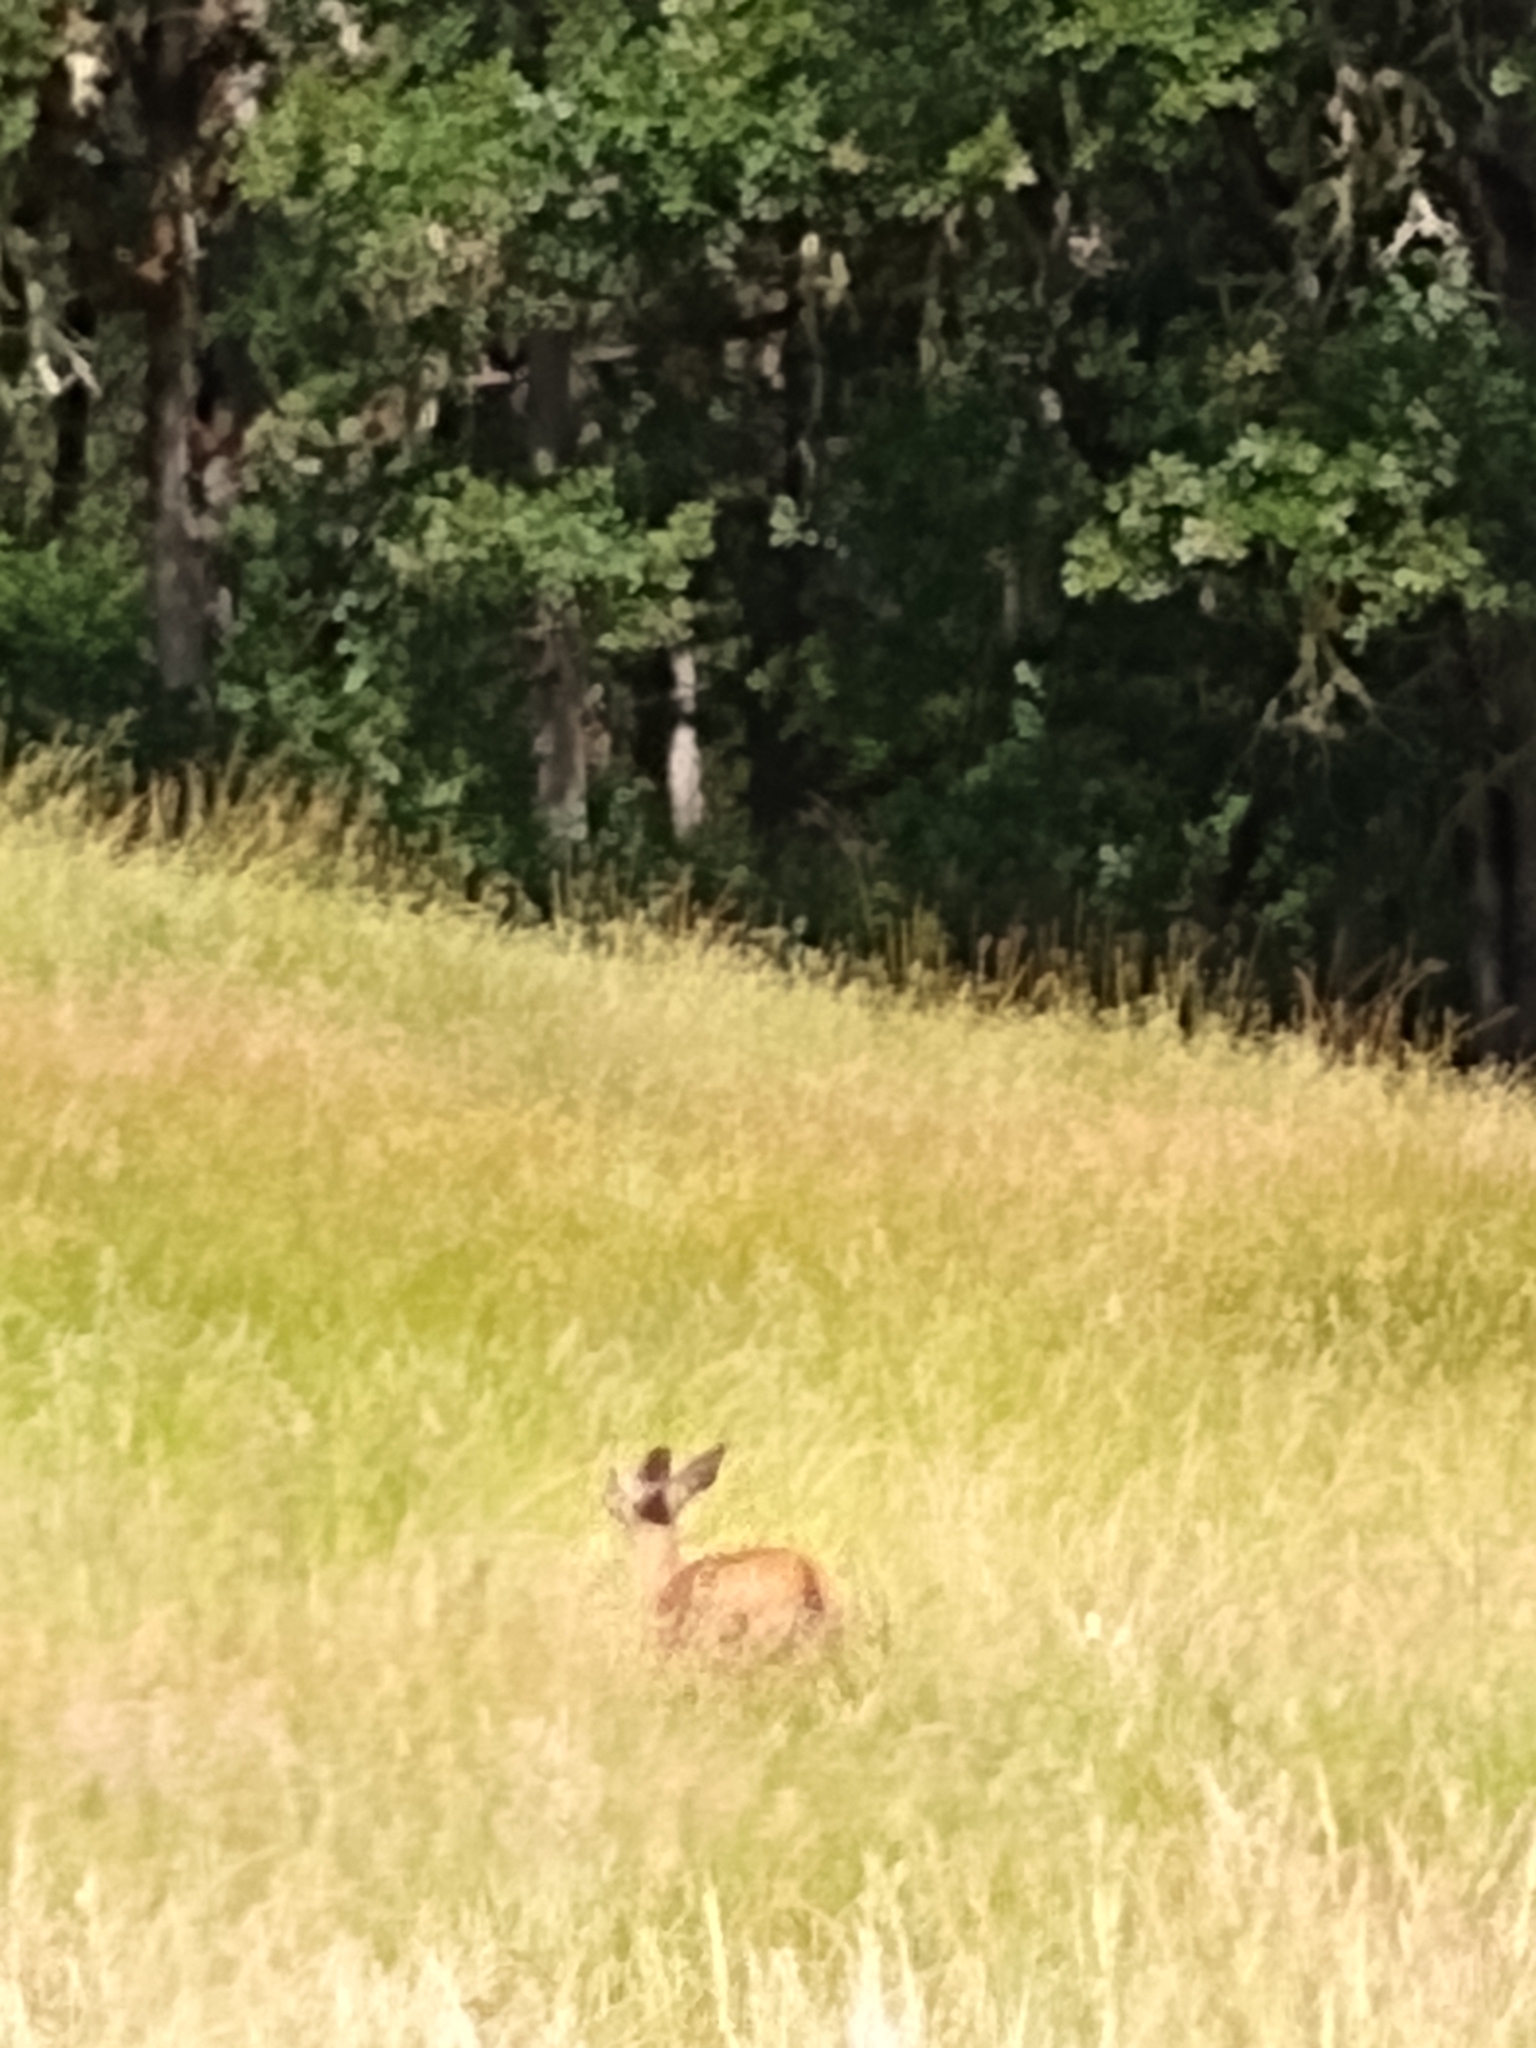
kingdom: Animalia
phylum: Chordata
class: Mammalia
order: Artiodactyla
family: Cervidae
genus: Odocoileus
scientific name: Odocoileus hemionus
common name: Mule deer
